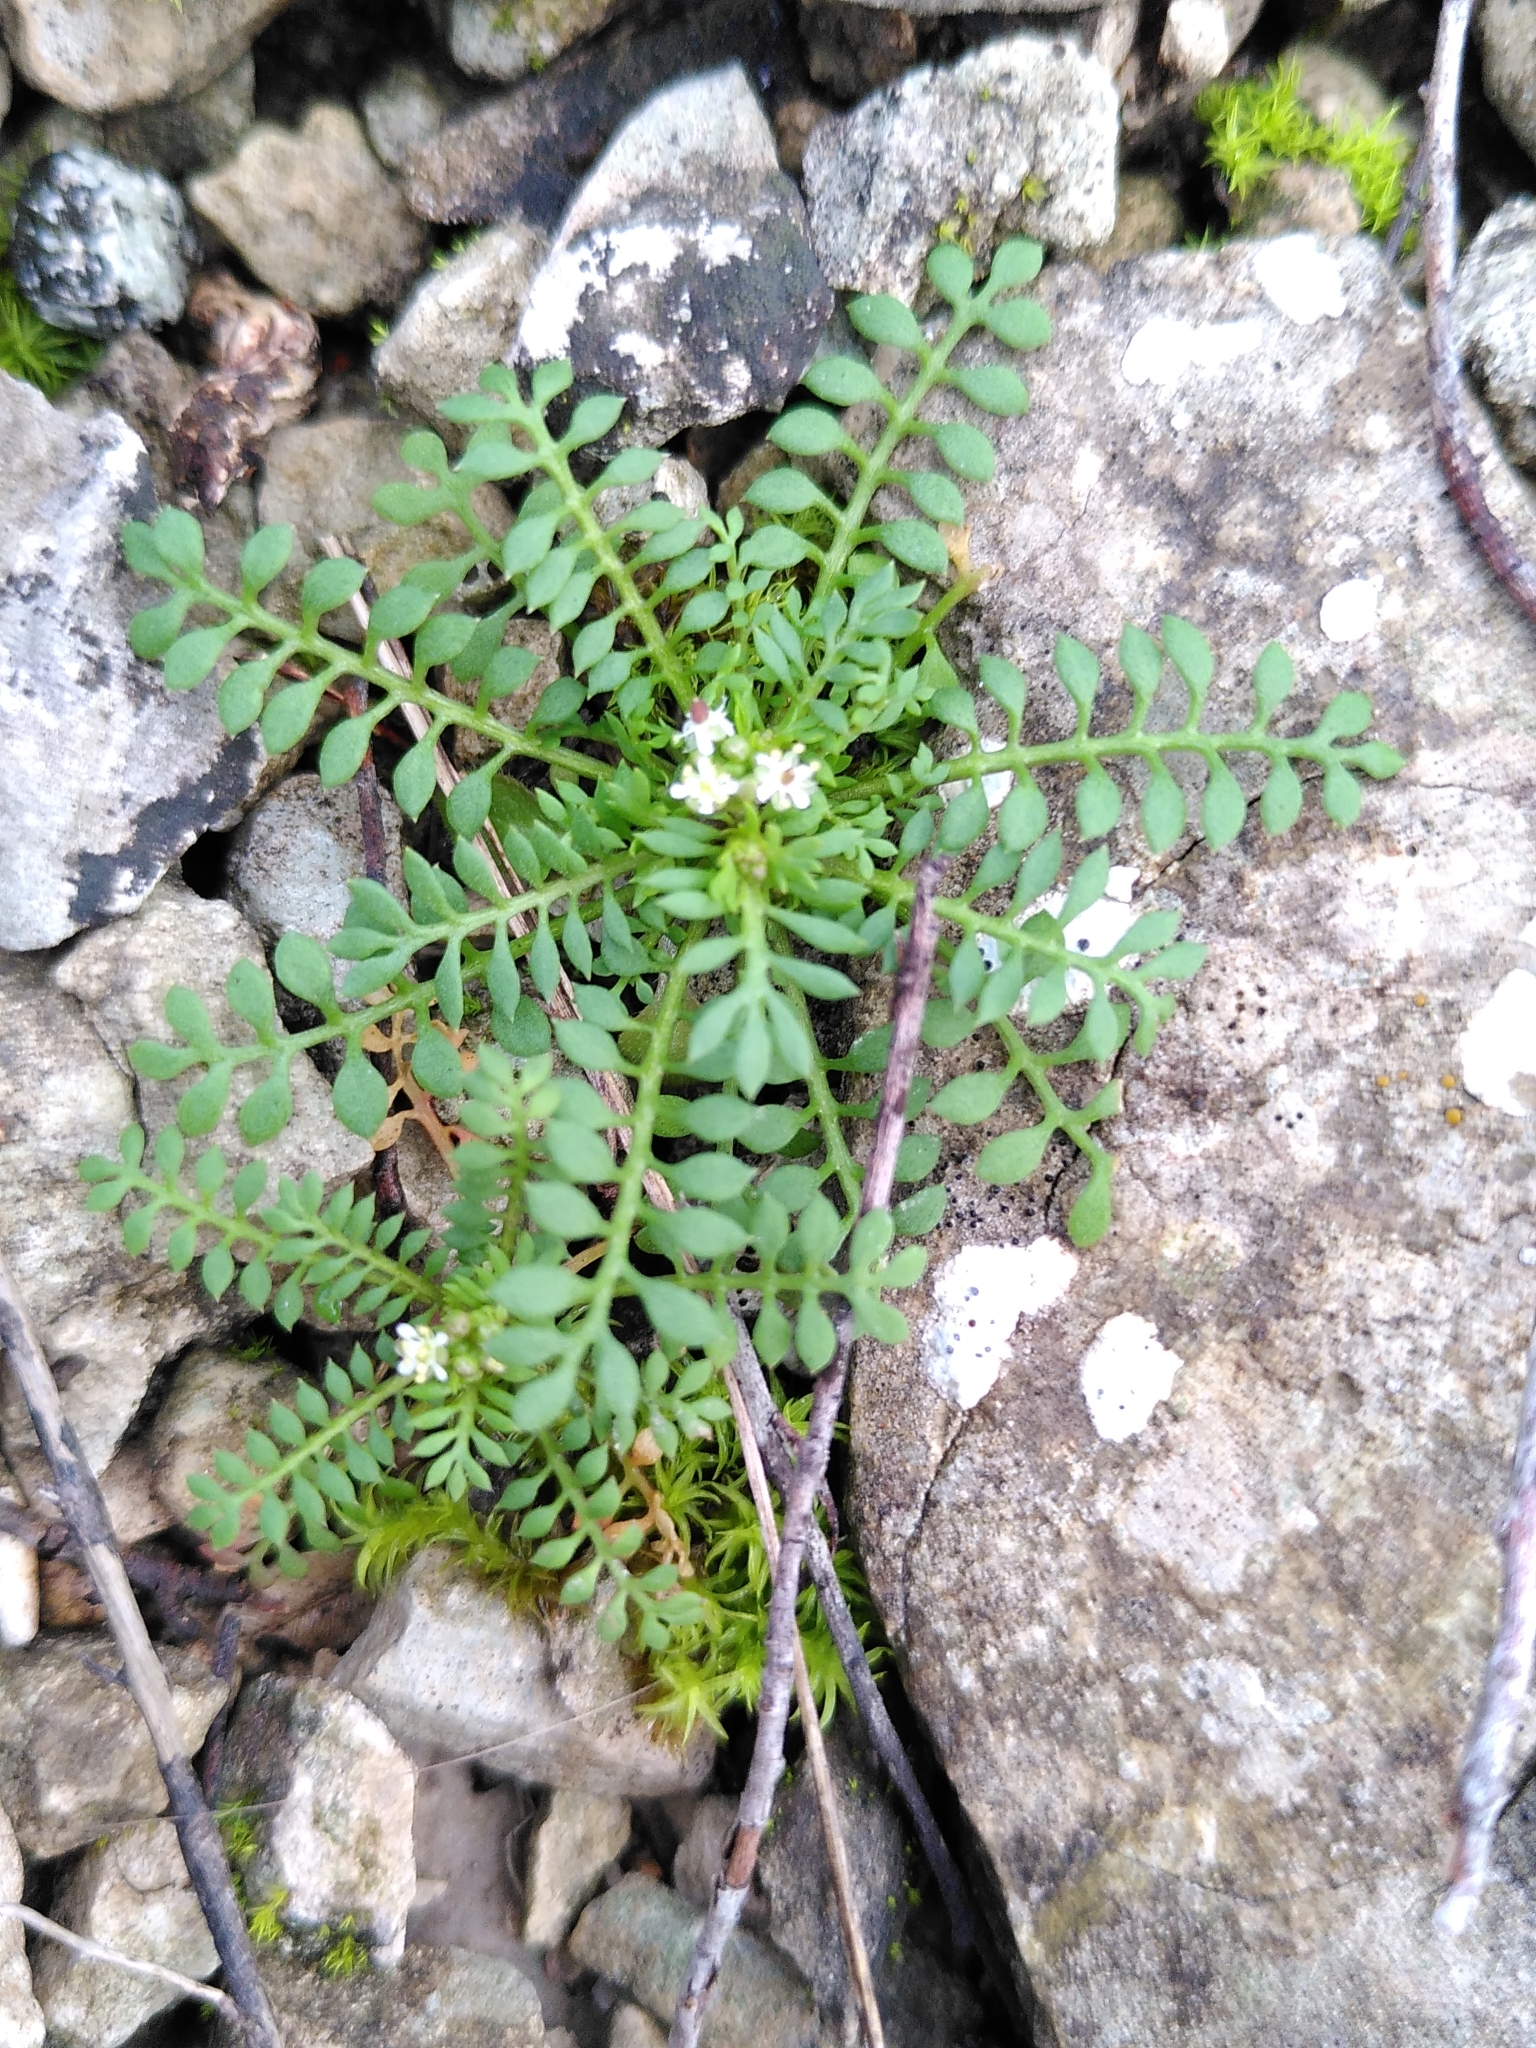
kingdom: Plantae
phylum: Tracheophyta
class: Magnoliopsida
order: Brassicales
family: Brassicaceae
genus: Hornungia
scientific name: Hornungia petraea
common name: Hutchinsia
